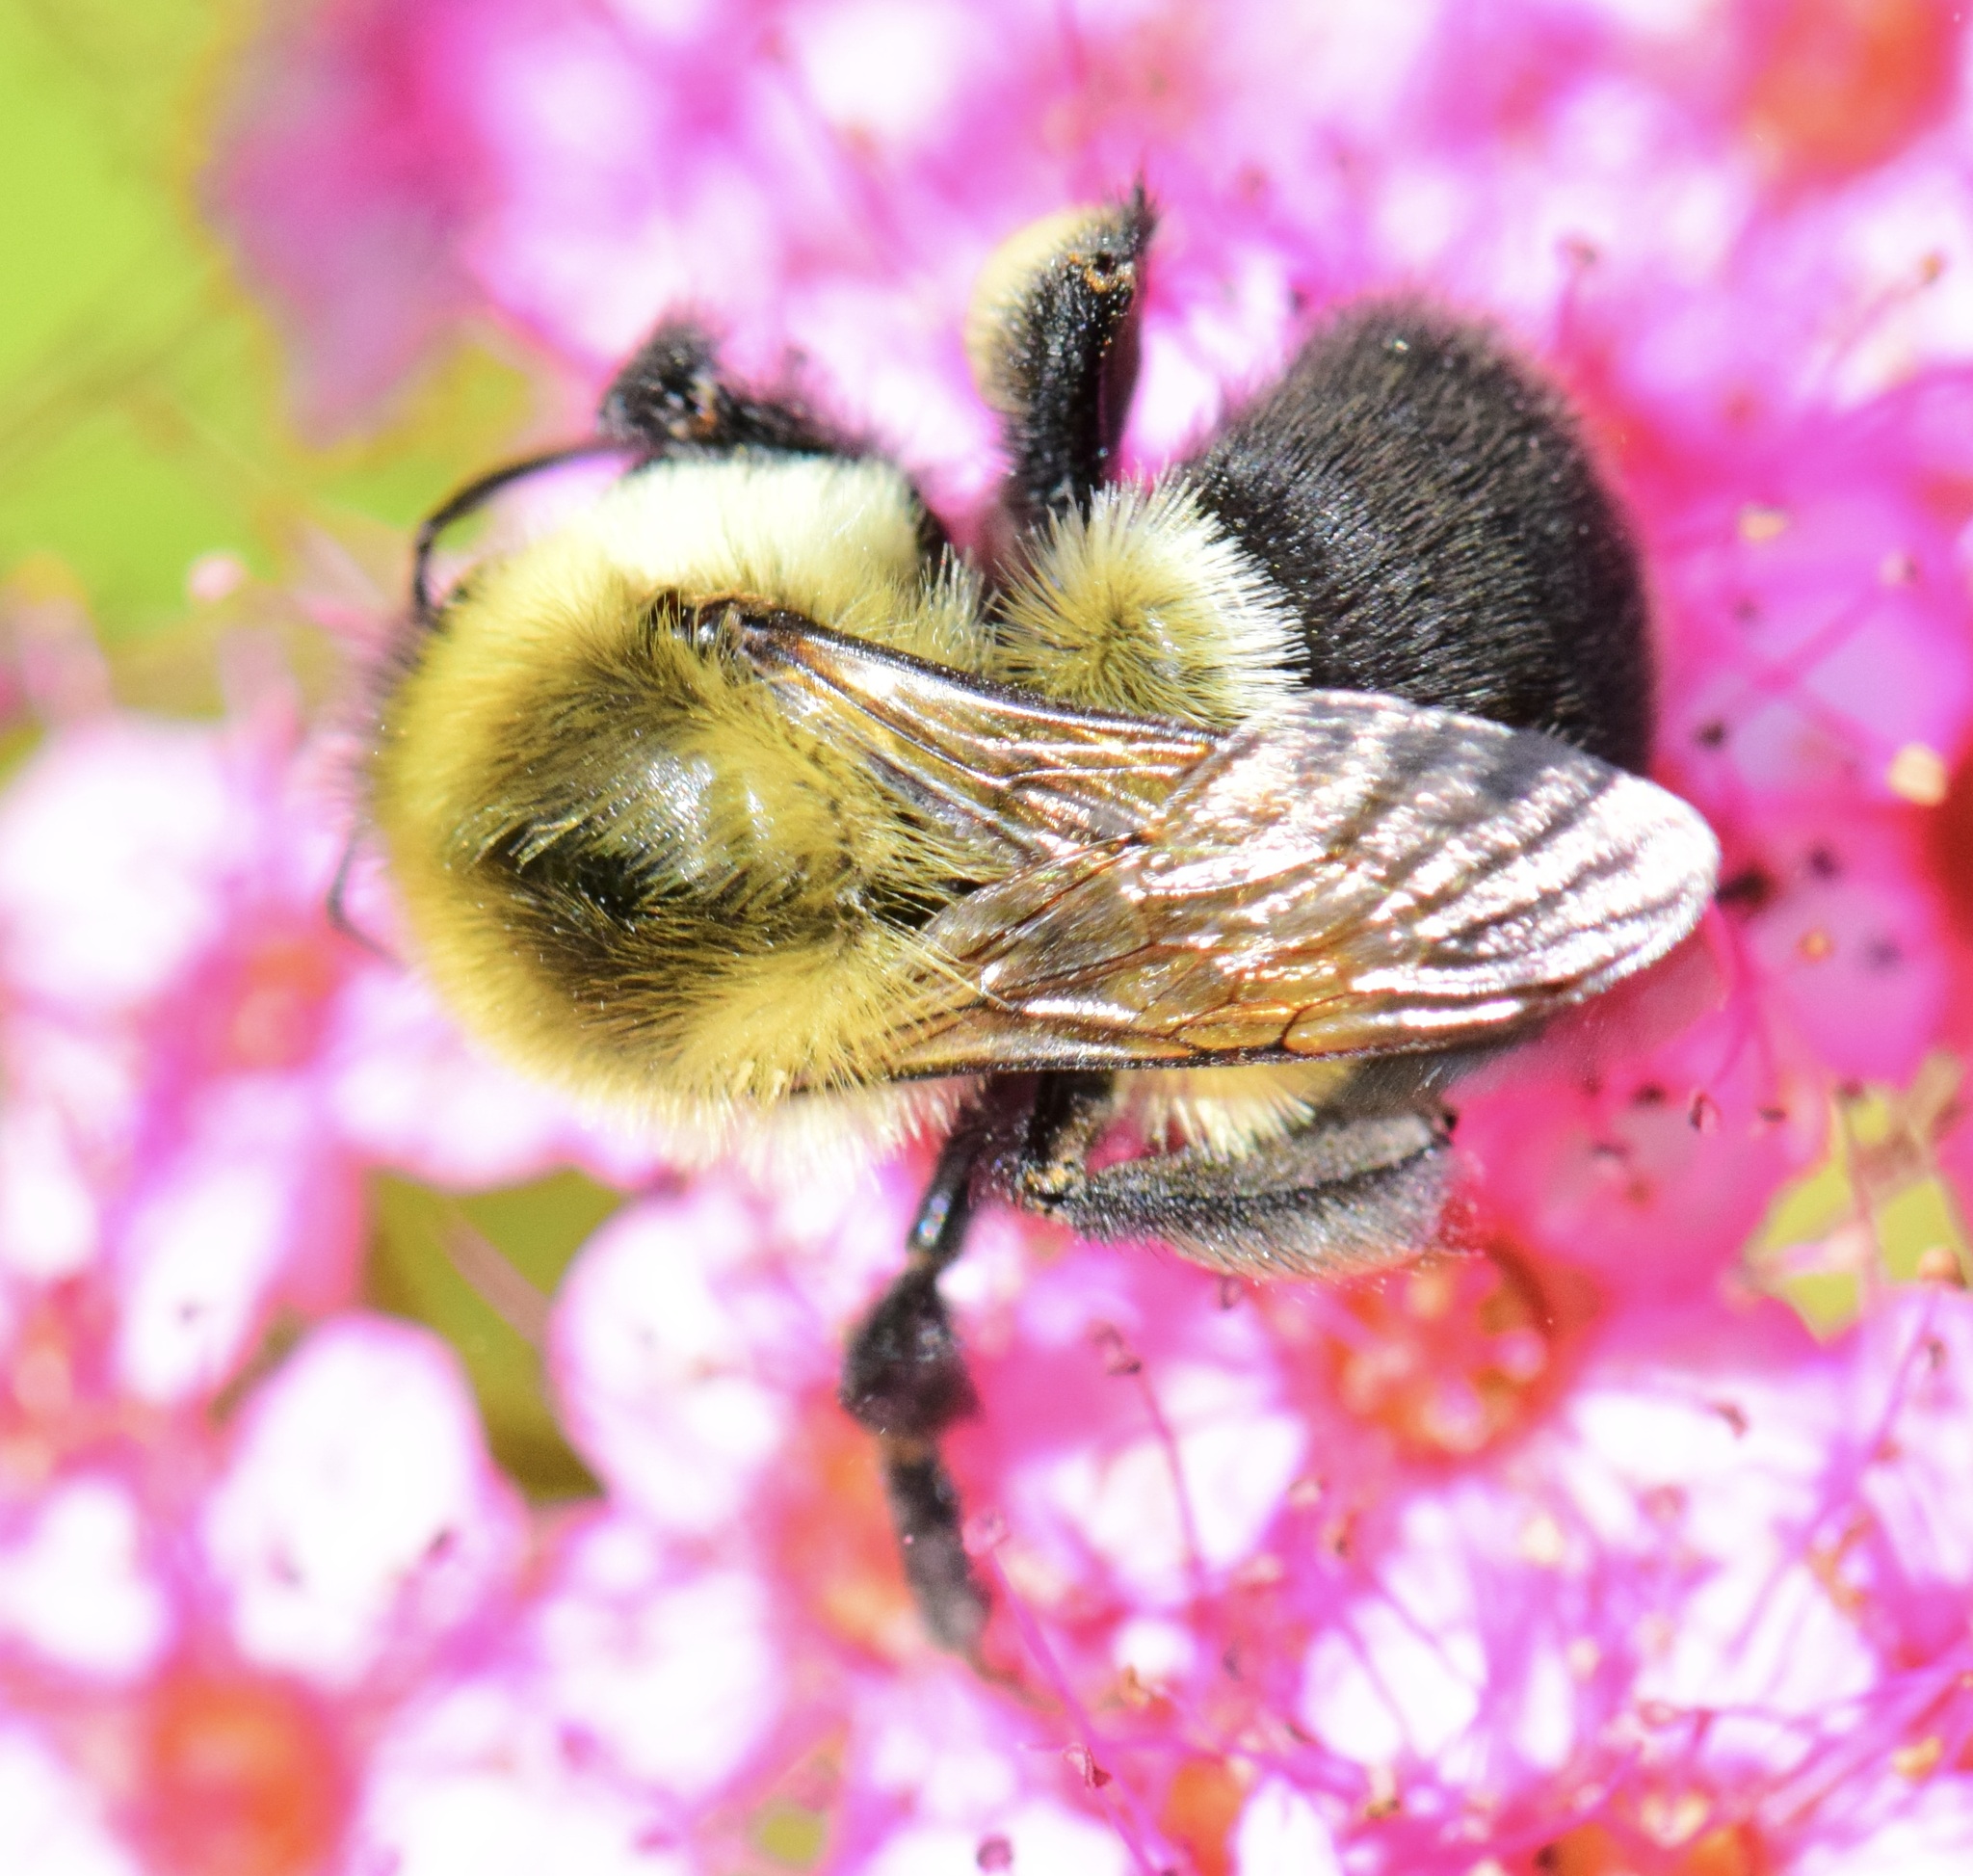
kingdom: Animalia
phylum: Arthropoda
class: Insecta
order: Hymenoptera
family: Apidae
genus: Bombus
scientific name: Bombus impatiens
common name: Common eastern bumble bee
